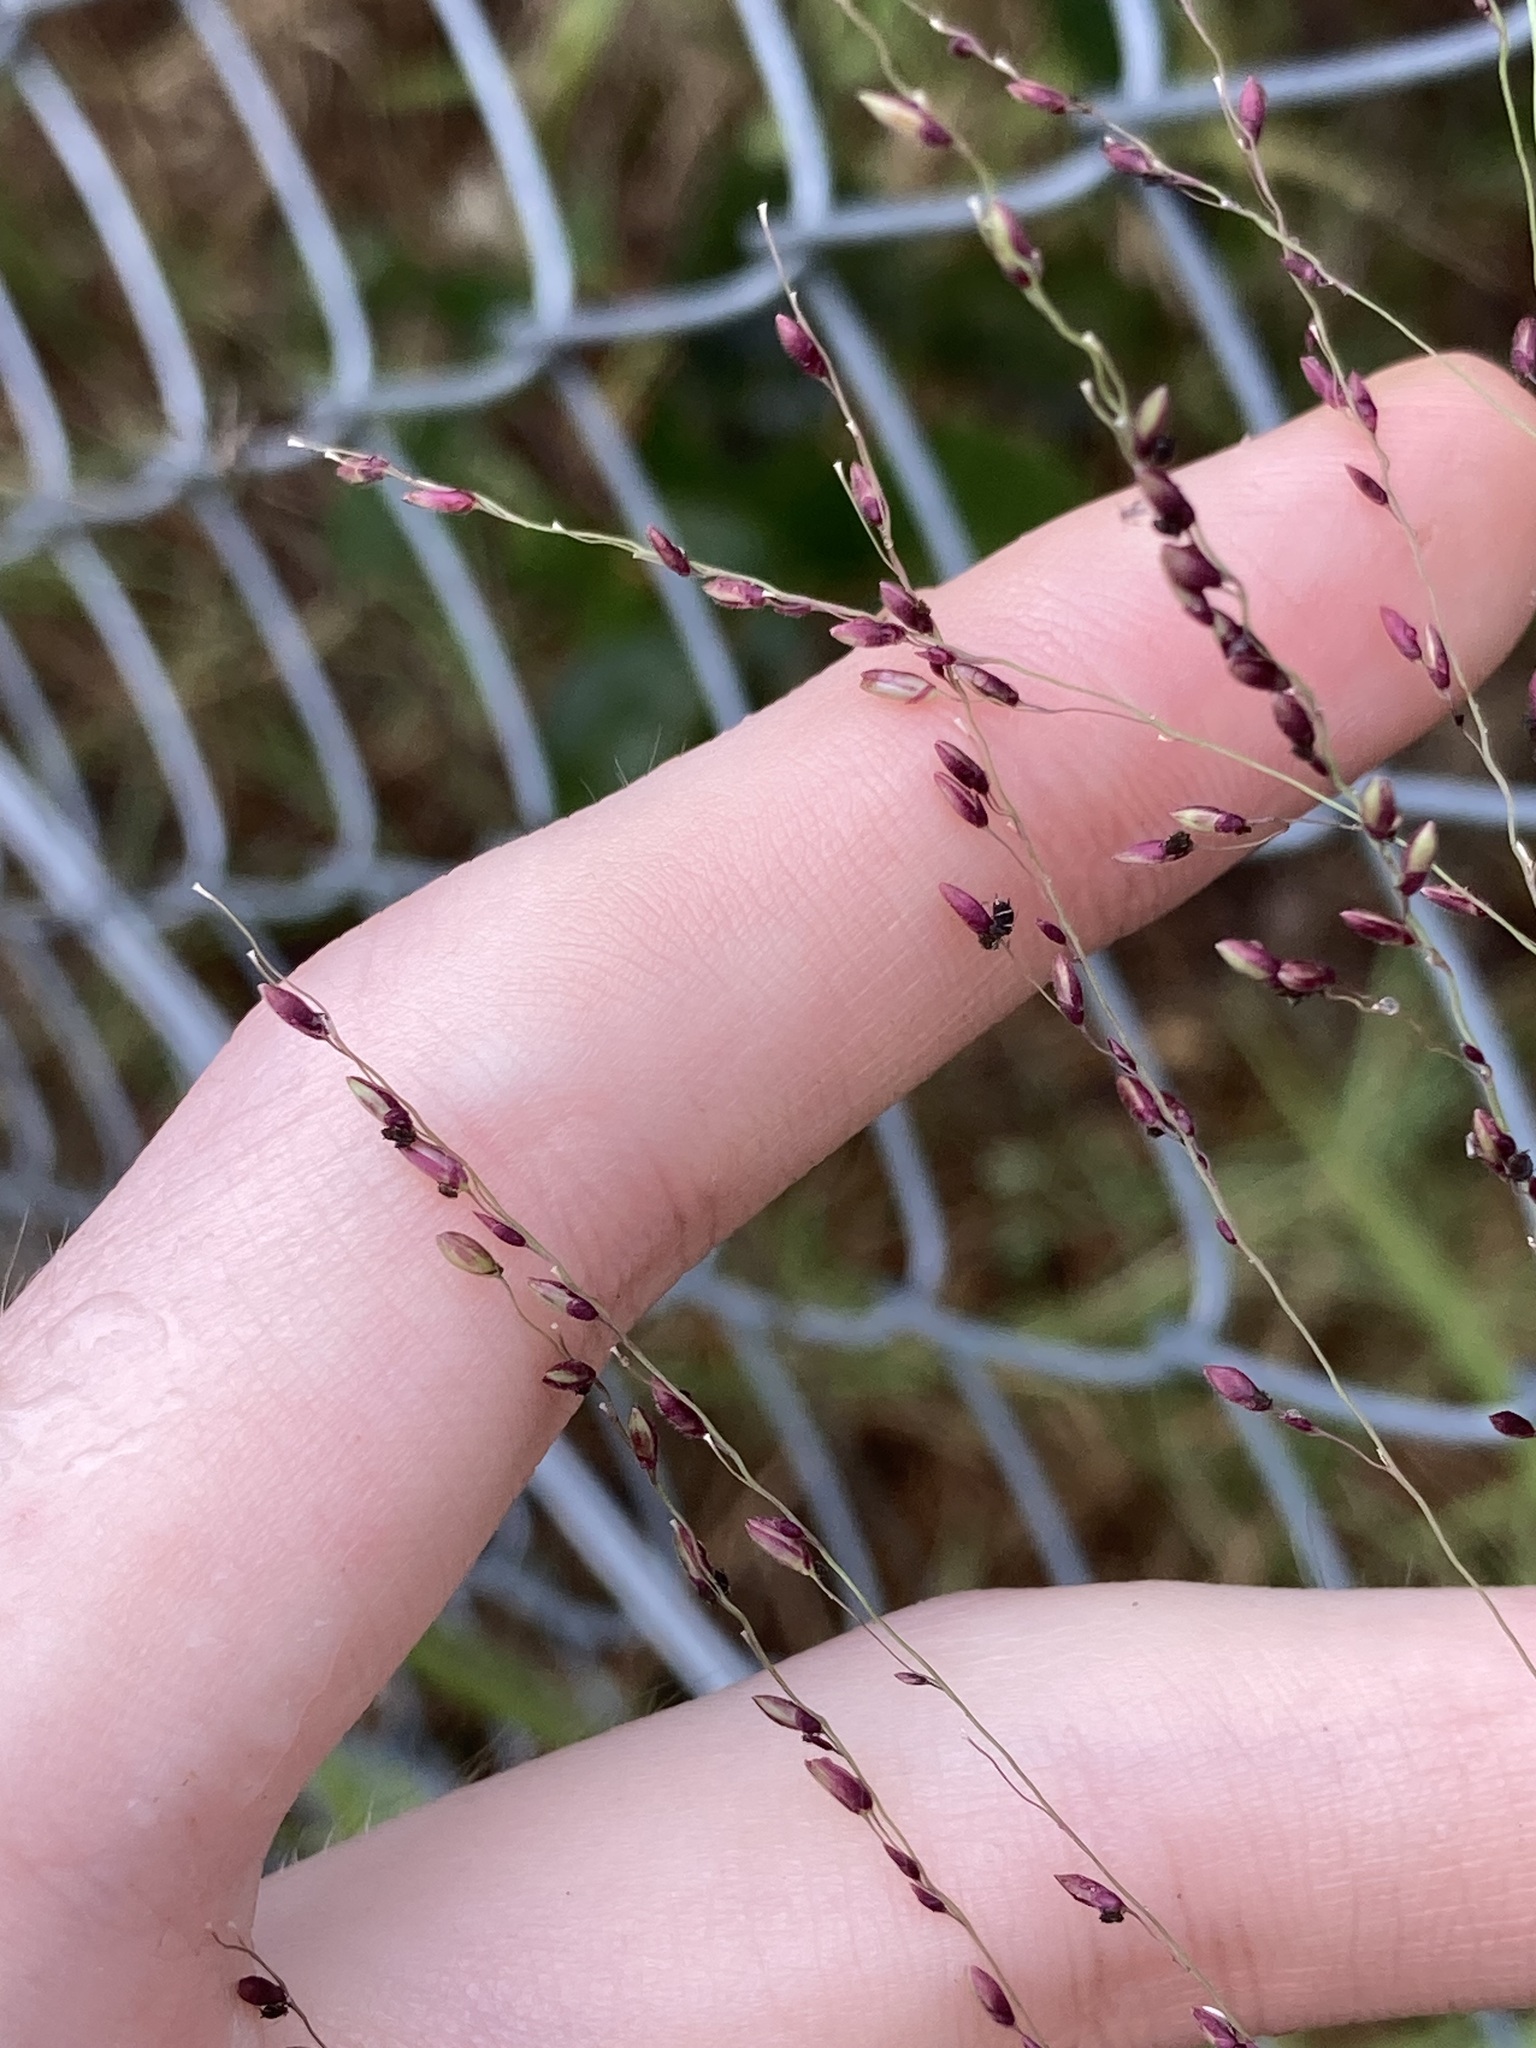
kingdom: Plantae
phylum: Tracheophyta
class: Liliopsida
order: Poales
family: Poaceae
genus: Megathyrsus
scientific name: Megathyrsus maximus
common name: Guineagrass
